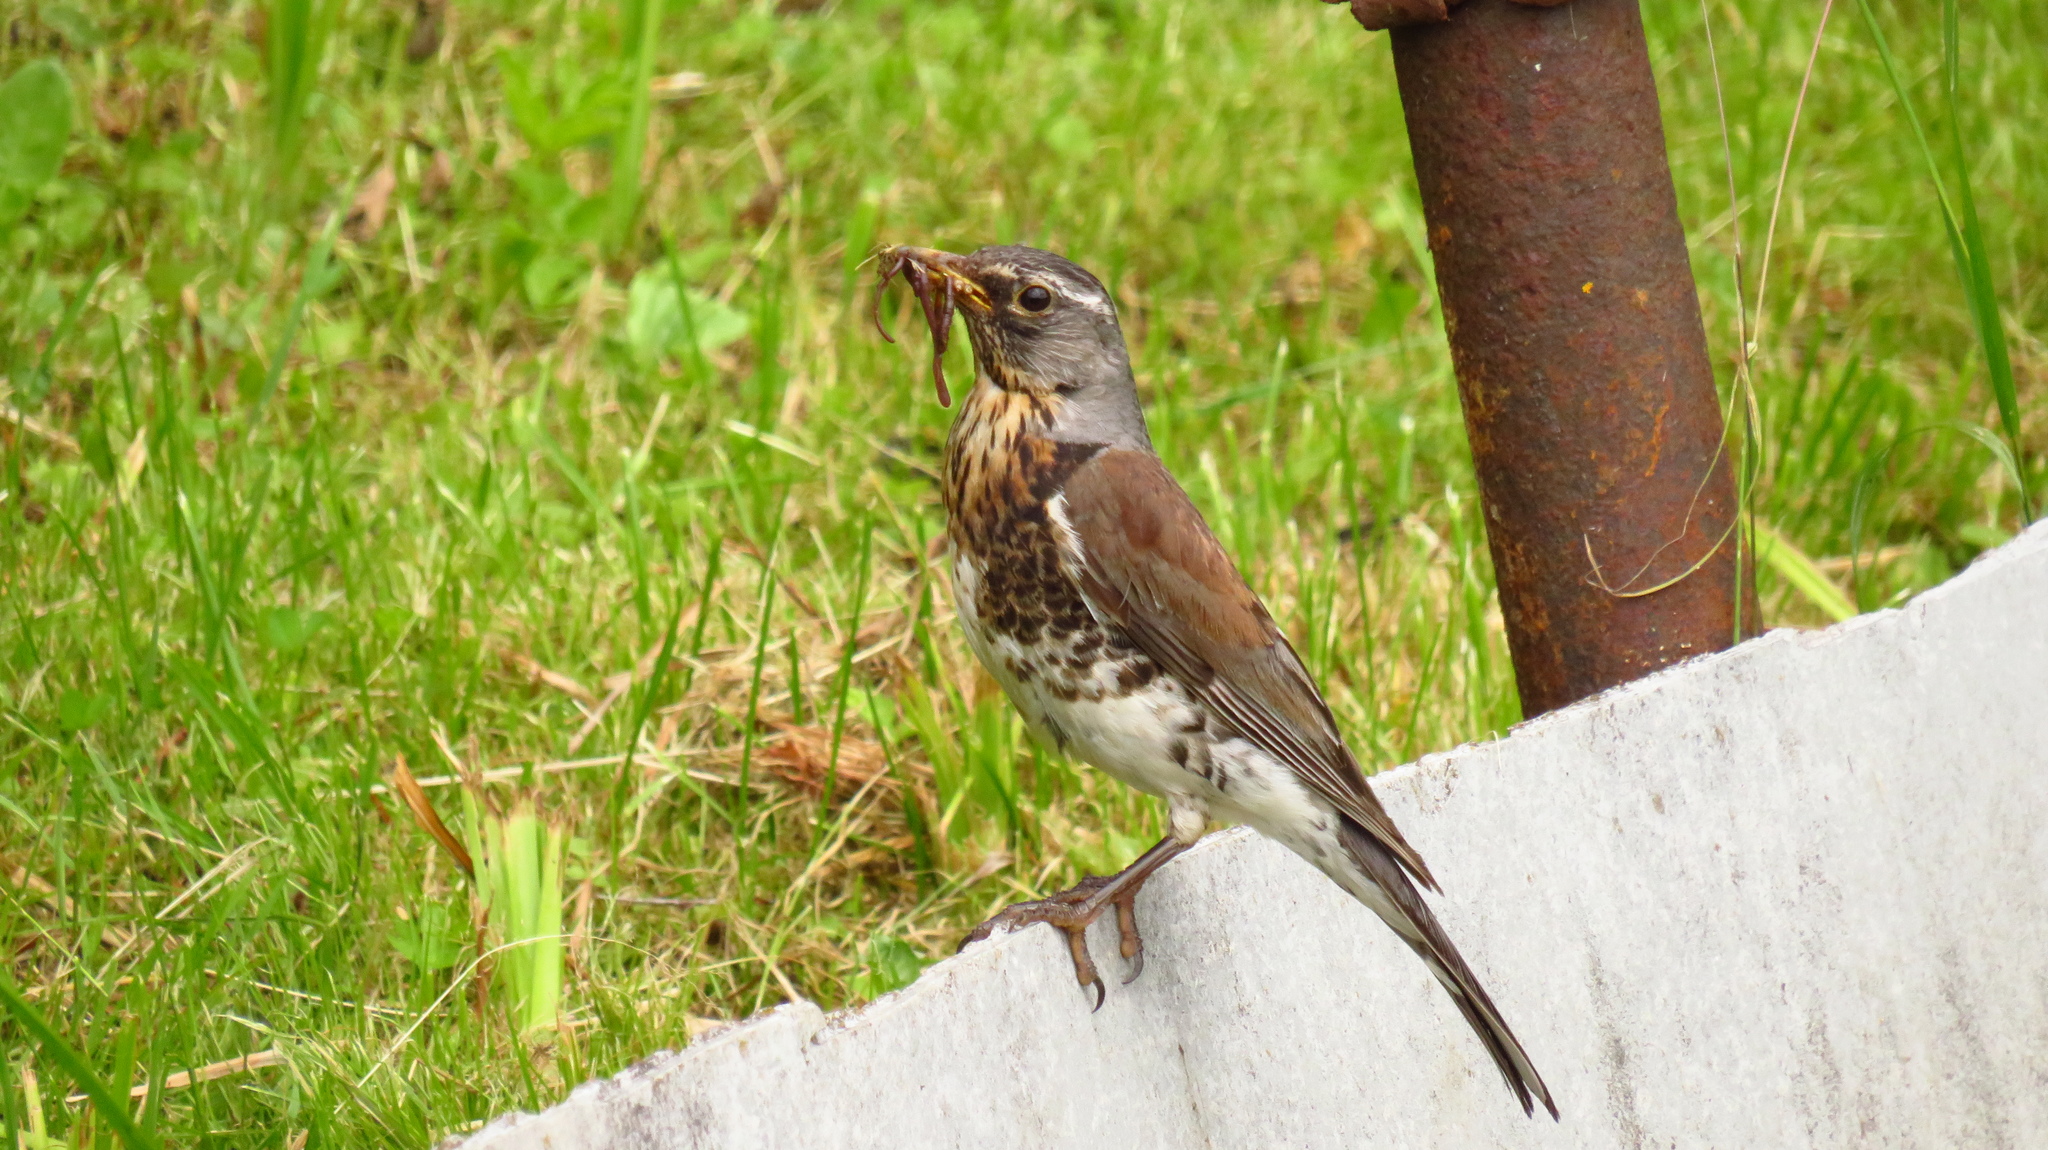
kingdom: Animalia
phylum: Chordata
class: Aves
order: Passeriformes
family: Turdidae
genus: Turdus
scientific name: Turdus pilaris
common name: Fieldfare
